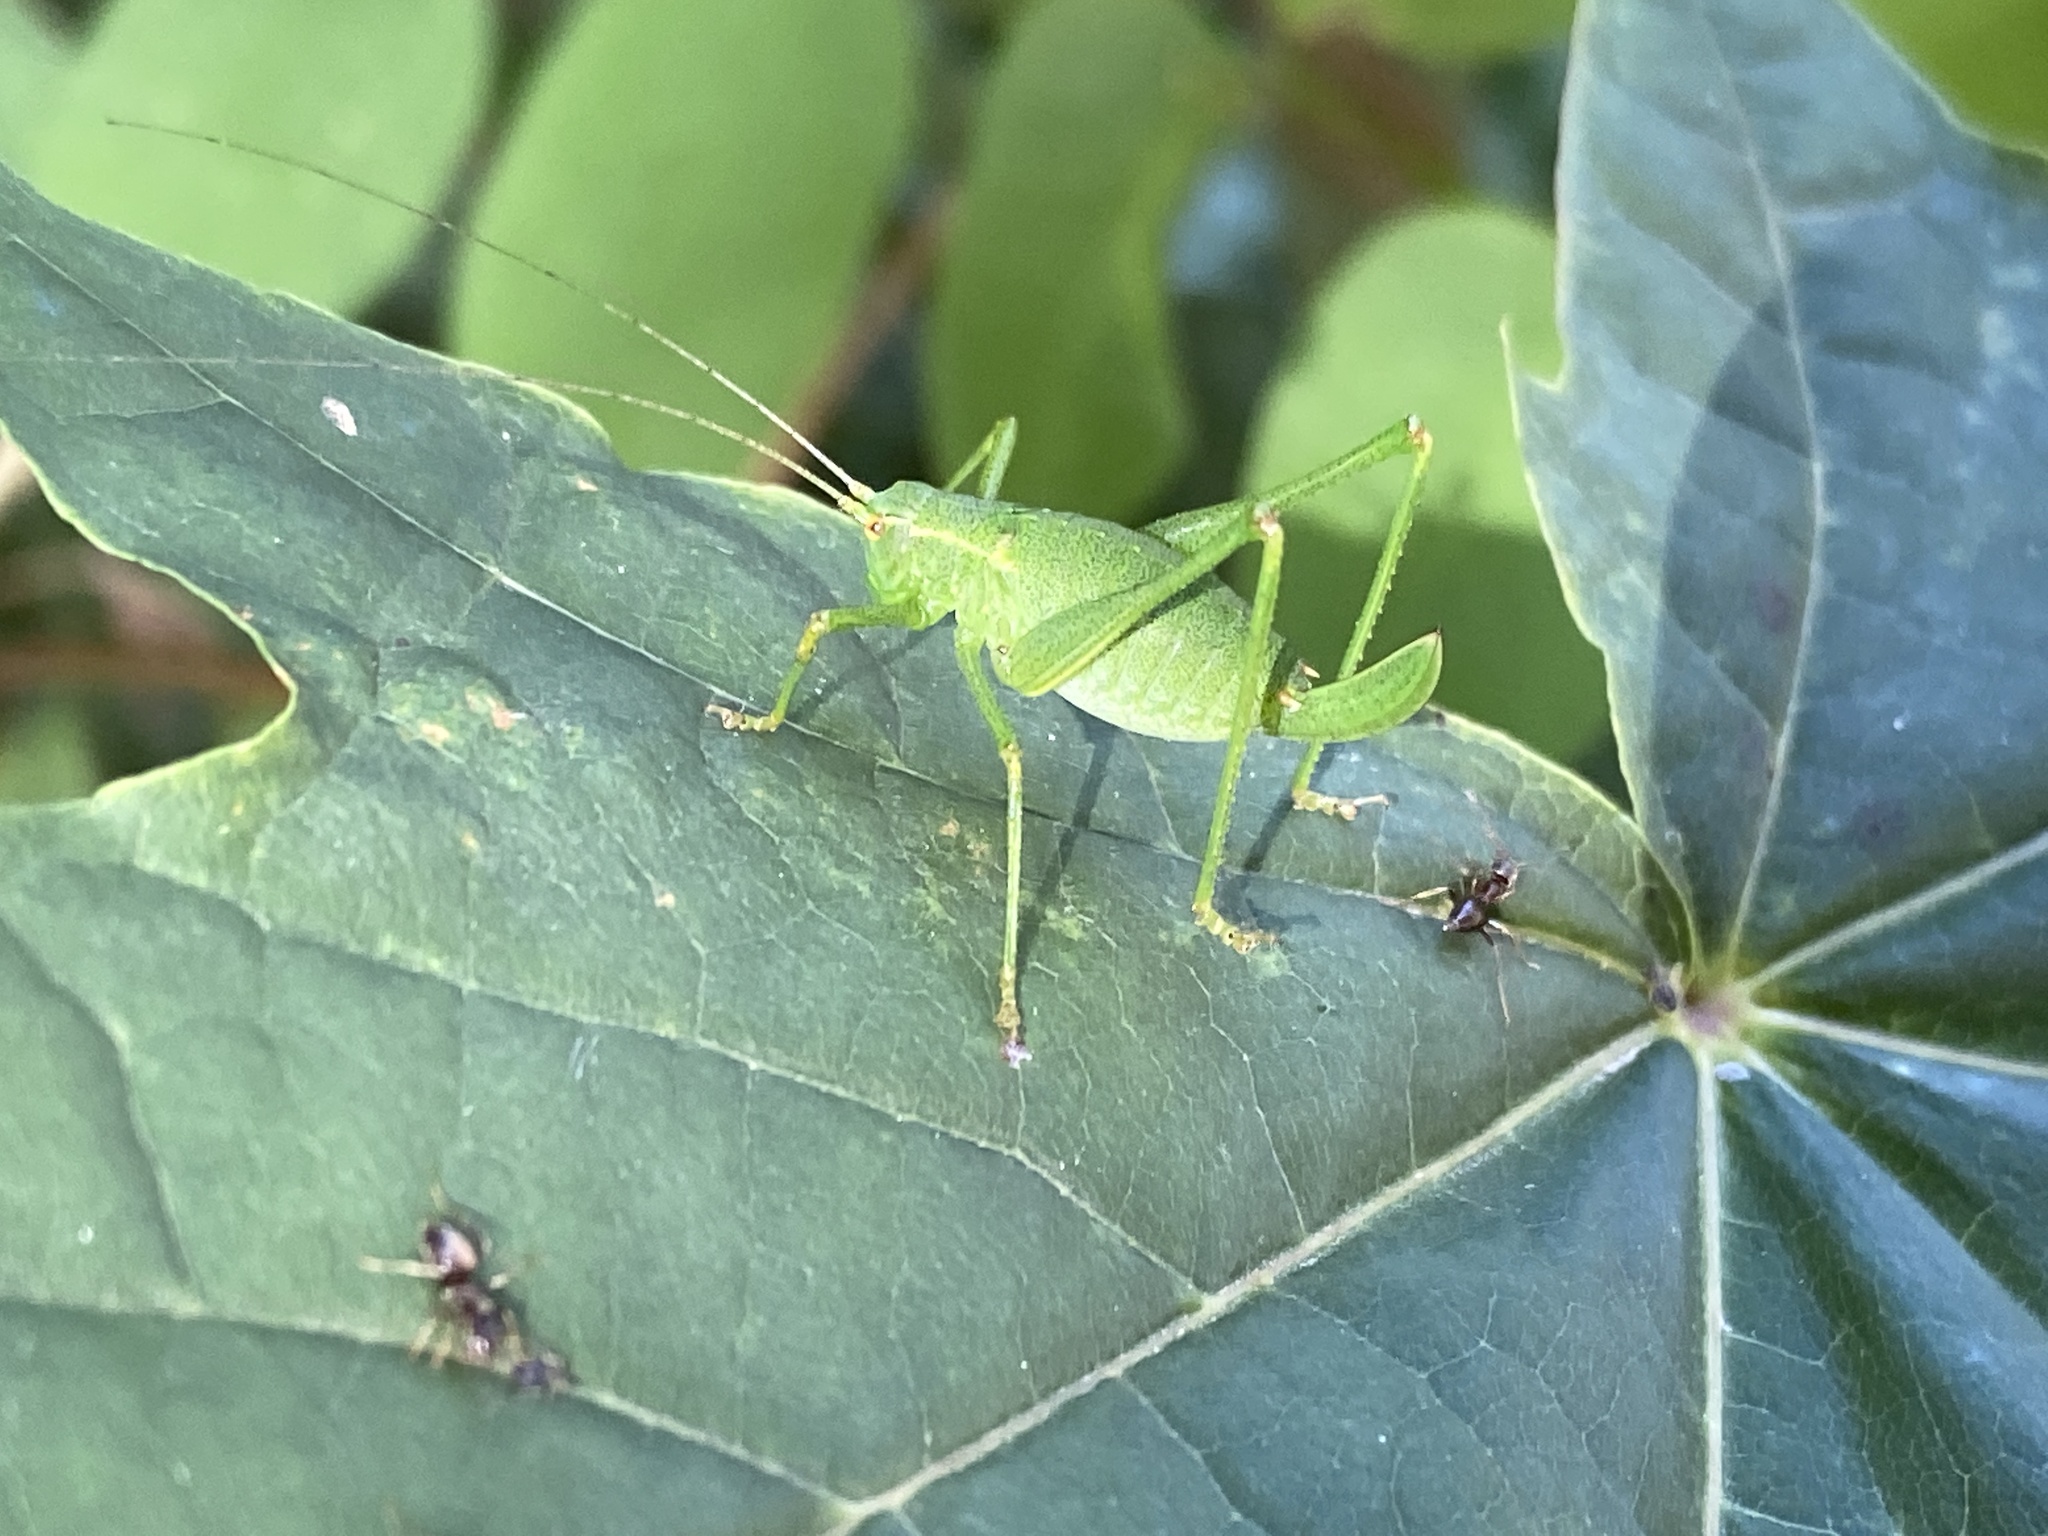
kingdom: Animalia
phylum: Arthropoda
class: Insecta
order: Orthoptera
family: Tettigoniidae
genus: Leptophyes
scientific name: Leptophyes punctatissima
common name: Speckled bush-cricket
